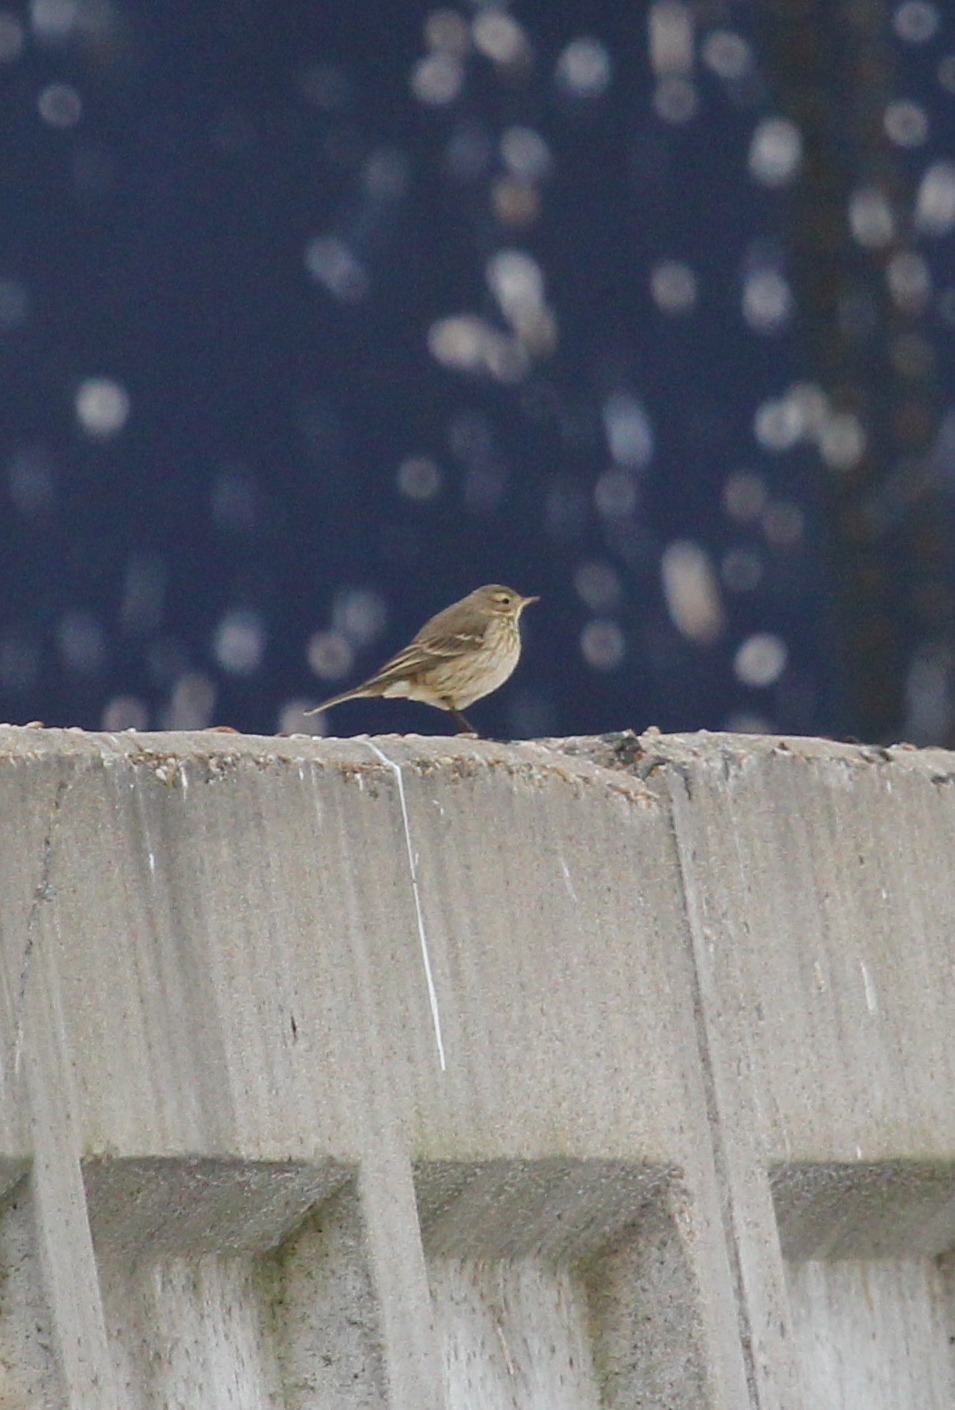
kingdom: Animalia
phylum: Chordata
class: Aves
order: Passeriformes
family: Motacillidae
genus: Anthus
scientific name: Anthus rubescens
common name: Buff-bellied pipit
